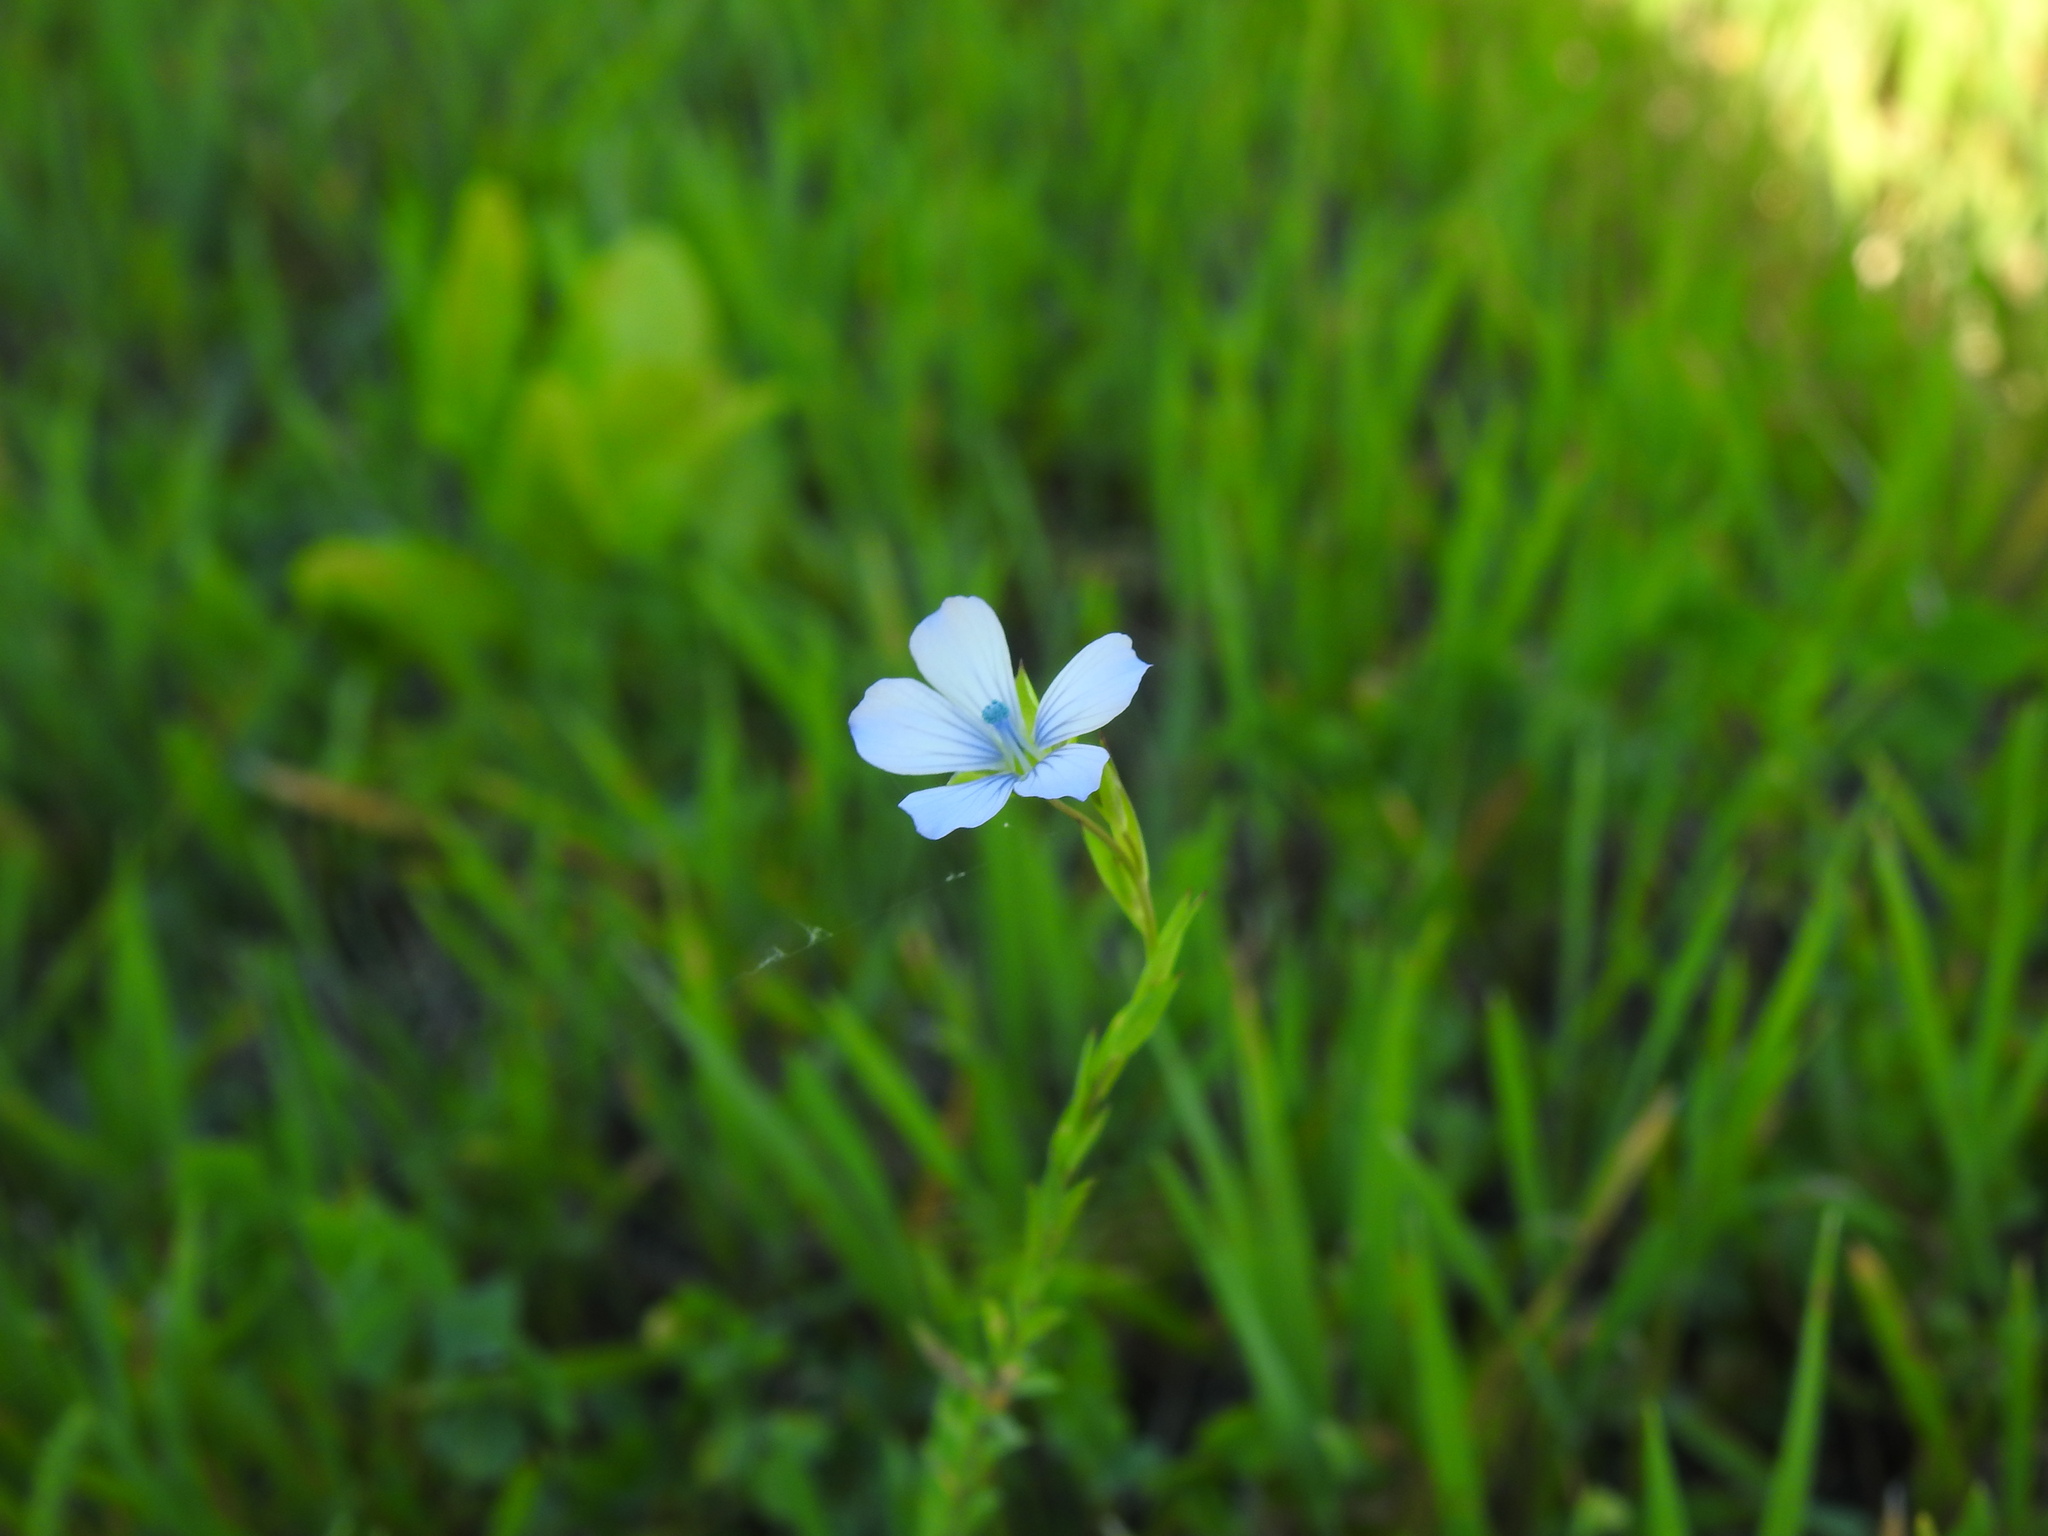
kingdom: Plantae
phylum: Tracheophyta
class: Magnoliopsida
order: Malpighiales
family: Linaceae
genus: Linum
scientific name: Linum bienne
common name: Pale flax
